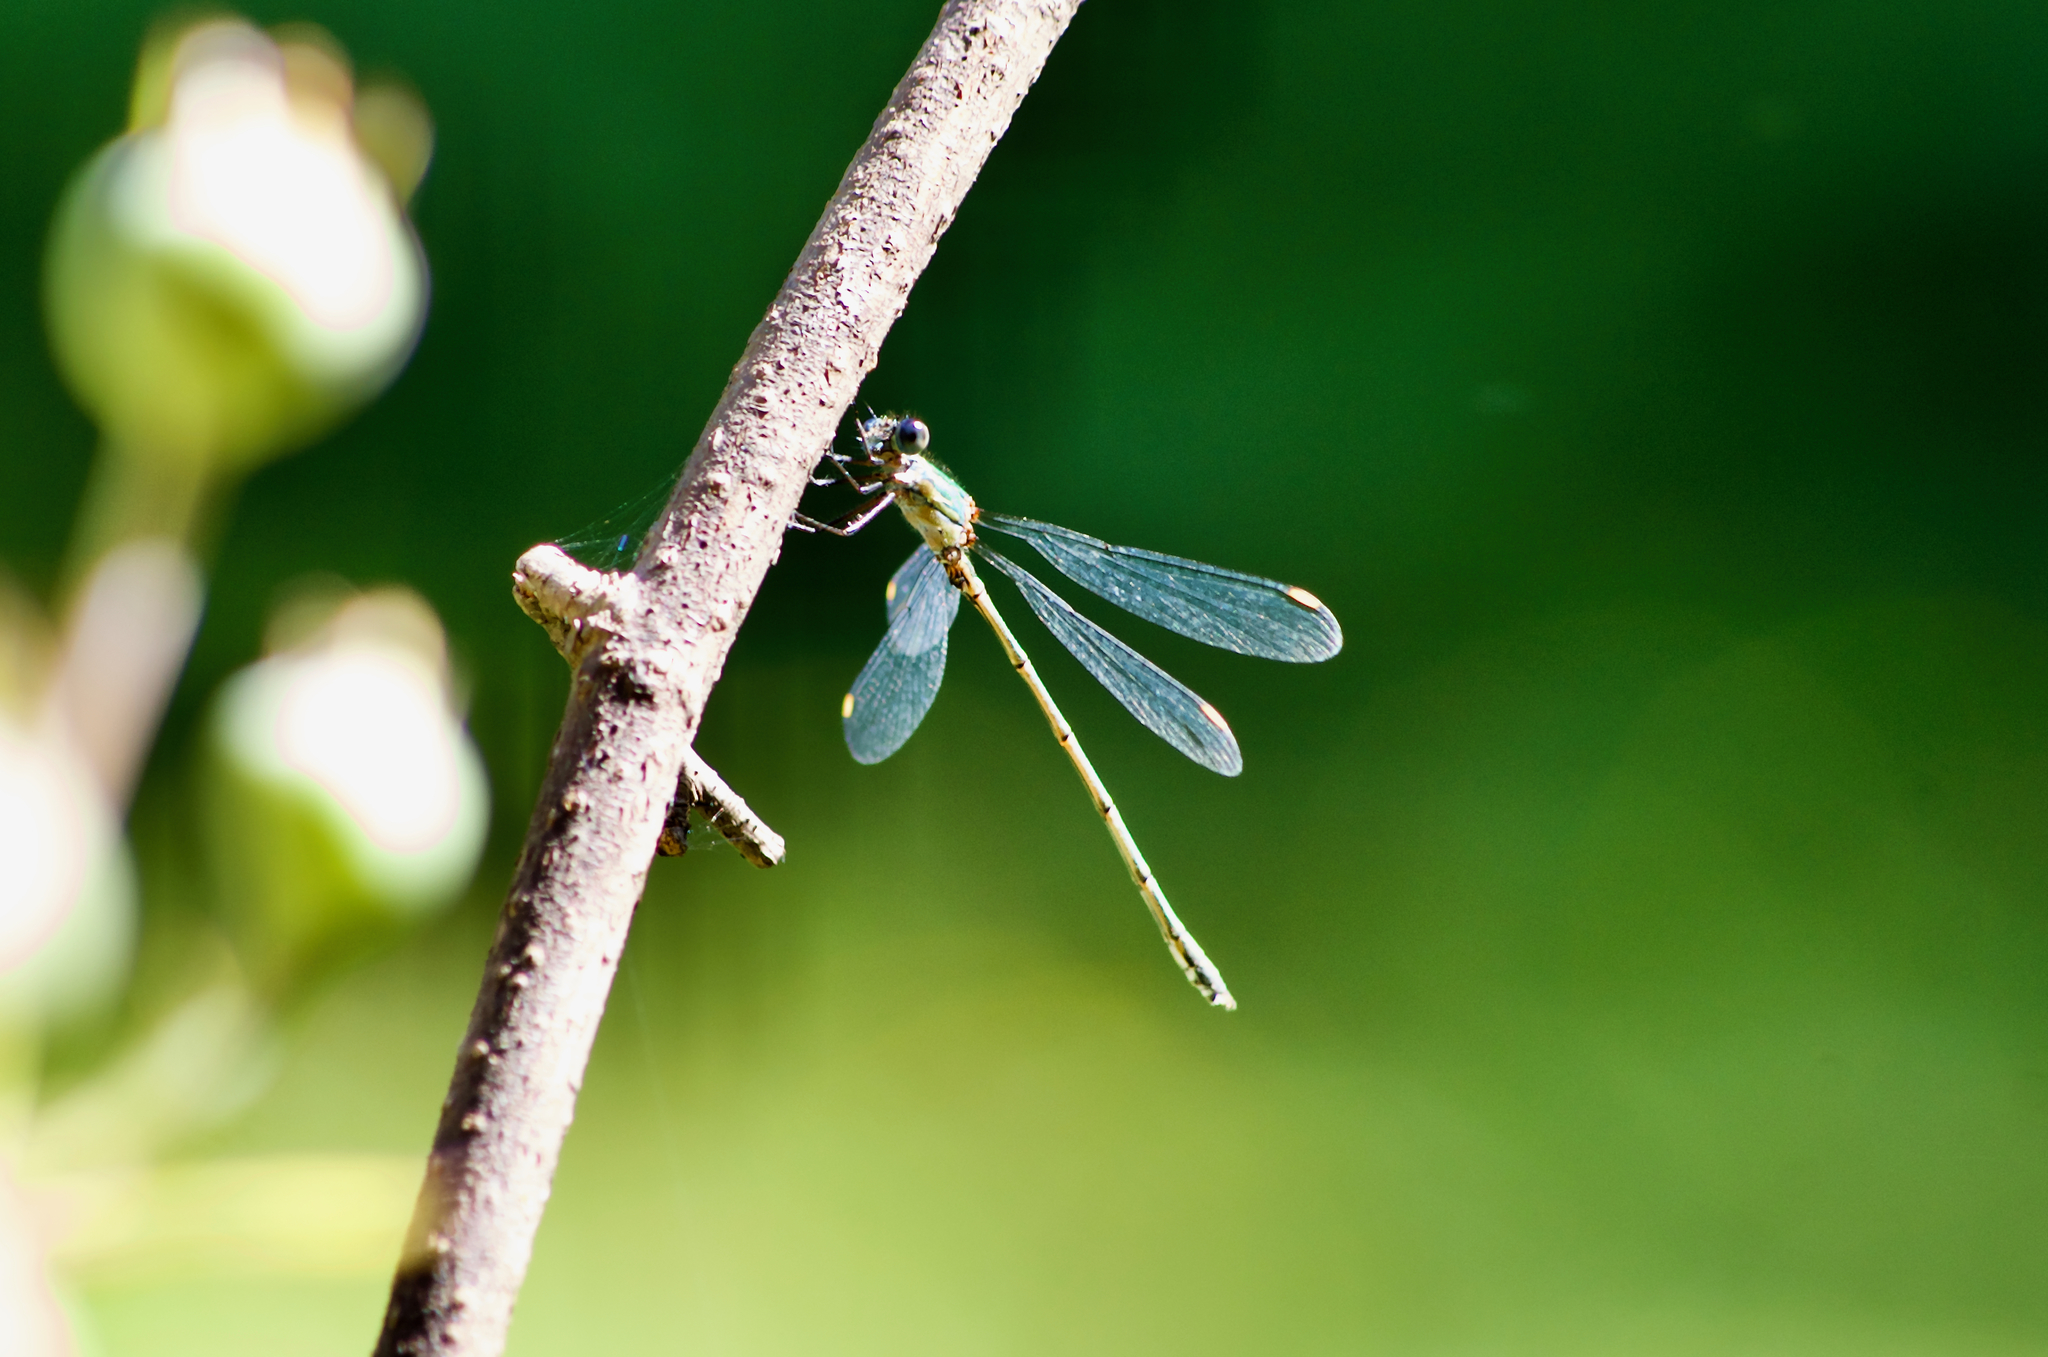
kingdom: Animalia
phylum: Arthropoda
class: Insecta
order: Odonata
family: Lestidae
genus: Chalcolestes
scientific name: Chalcolestes viridis
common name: Green emerald damselfly
